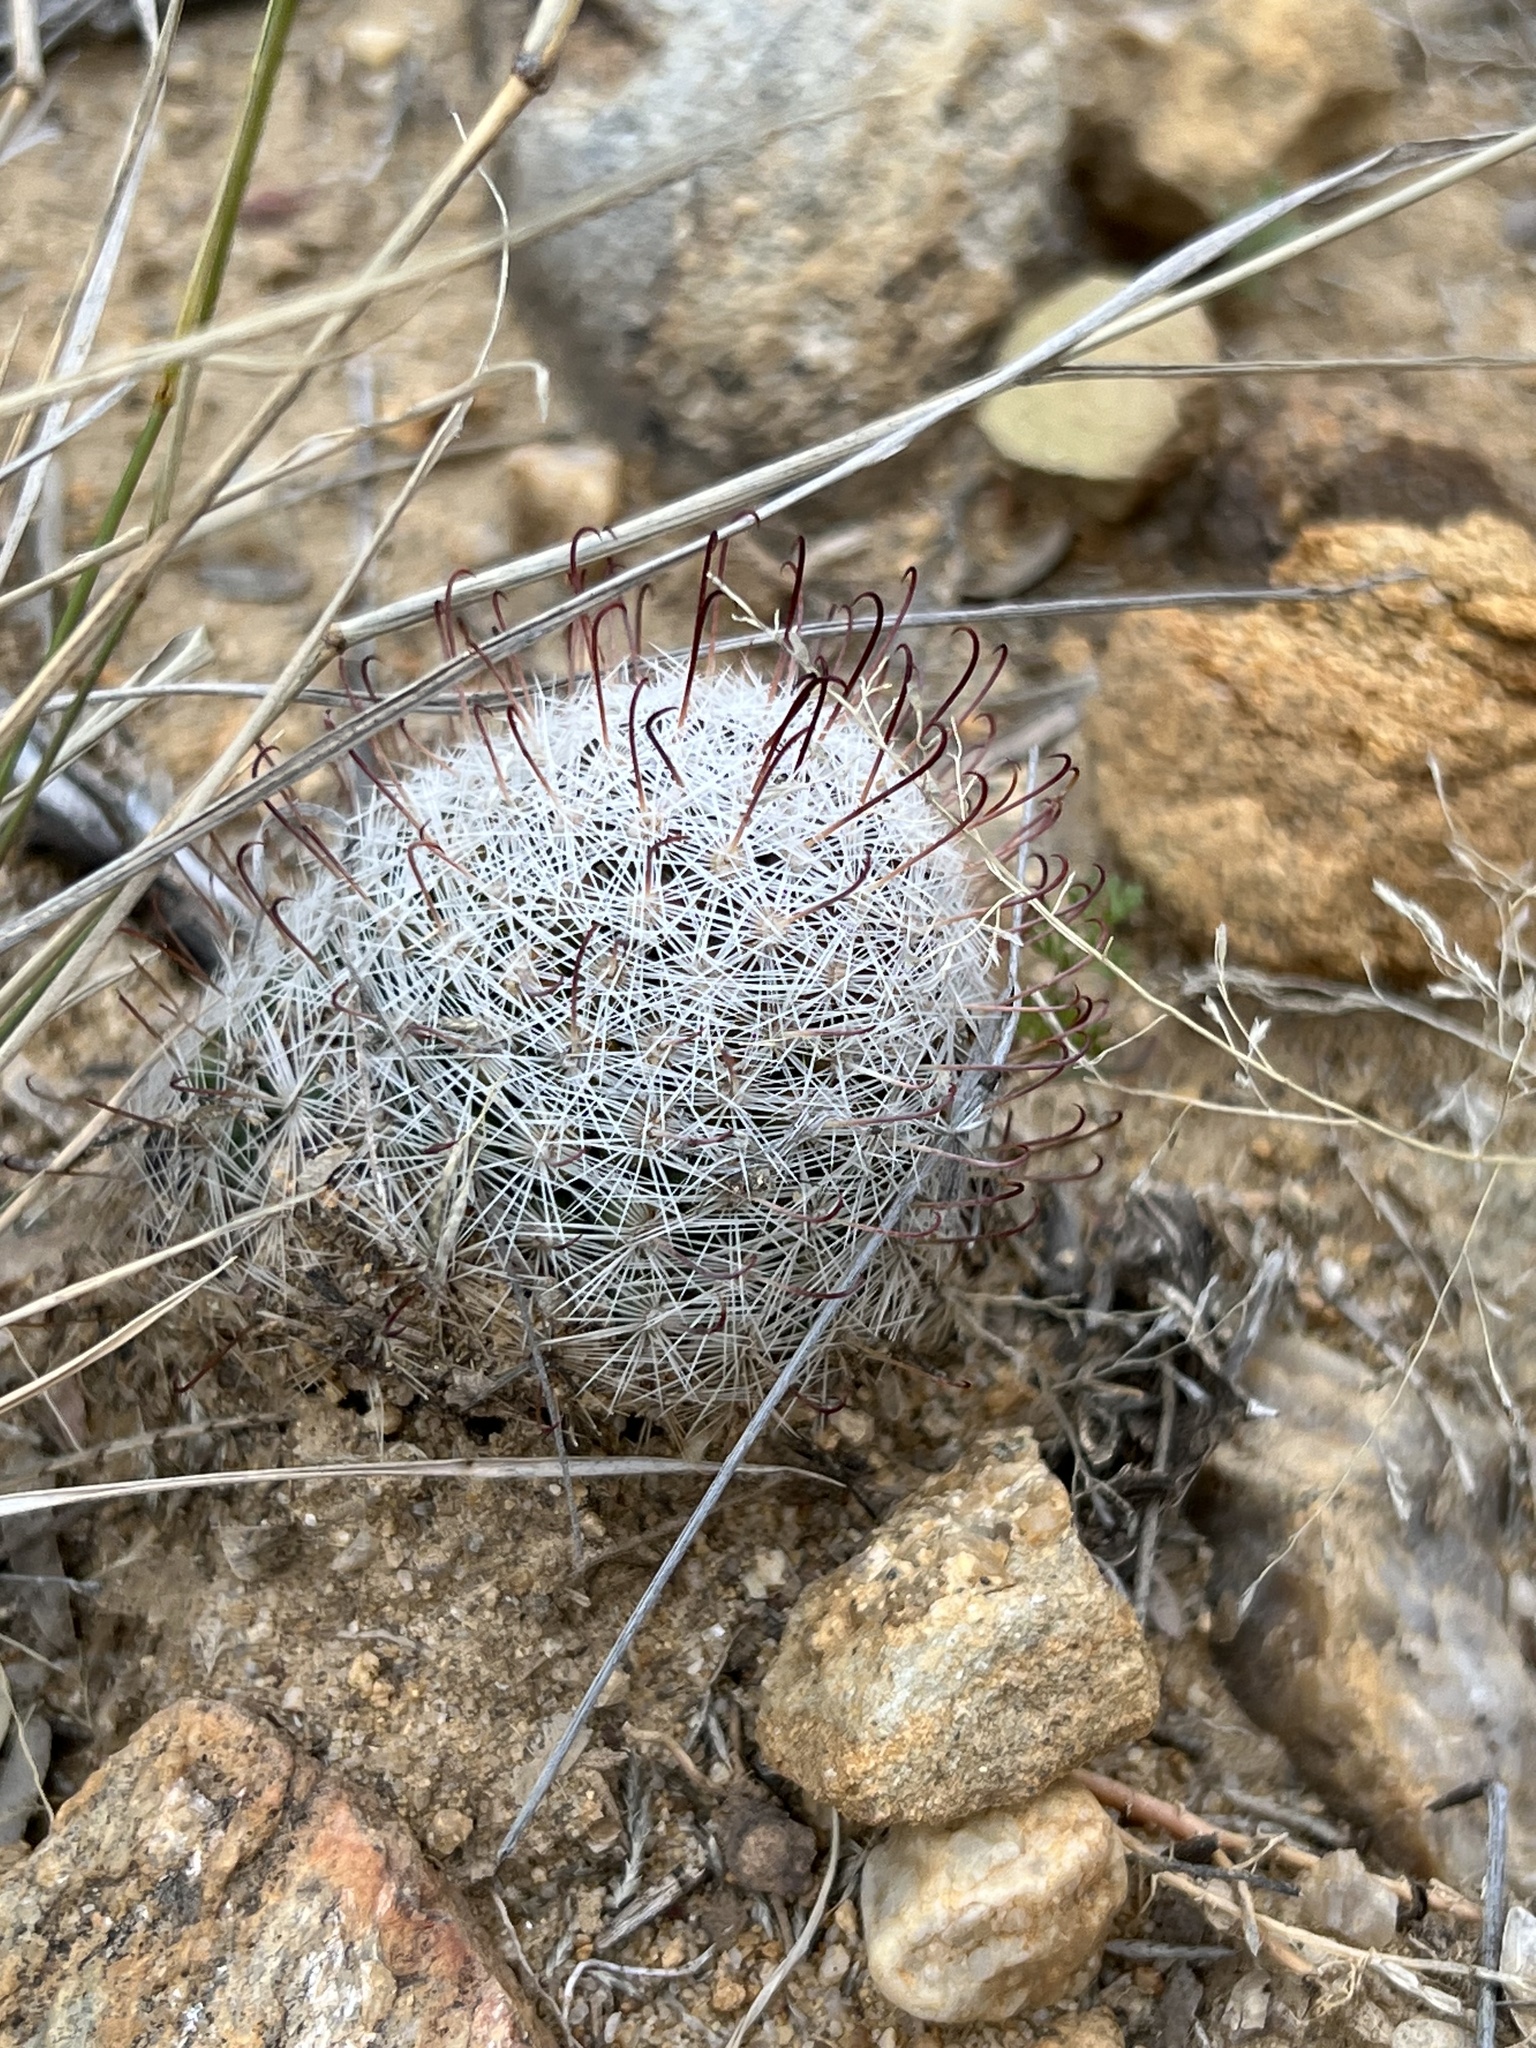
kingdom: Plantae
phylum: Tracheophyta
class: Magnoliopsida
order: Caryophyllales
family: Cactaceae
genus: Cochemiea
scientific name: Cochemiea grahamii
